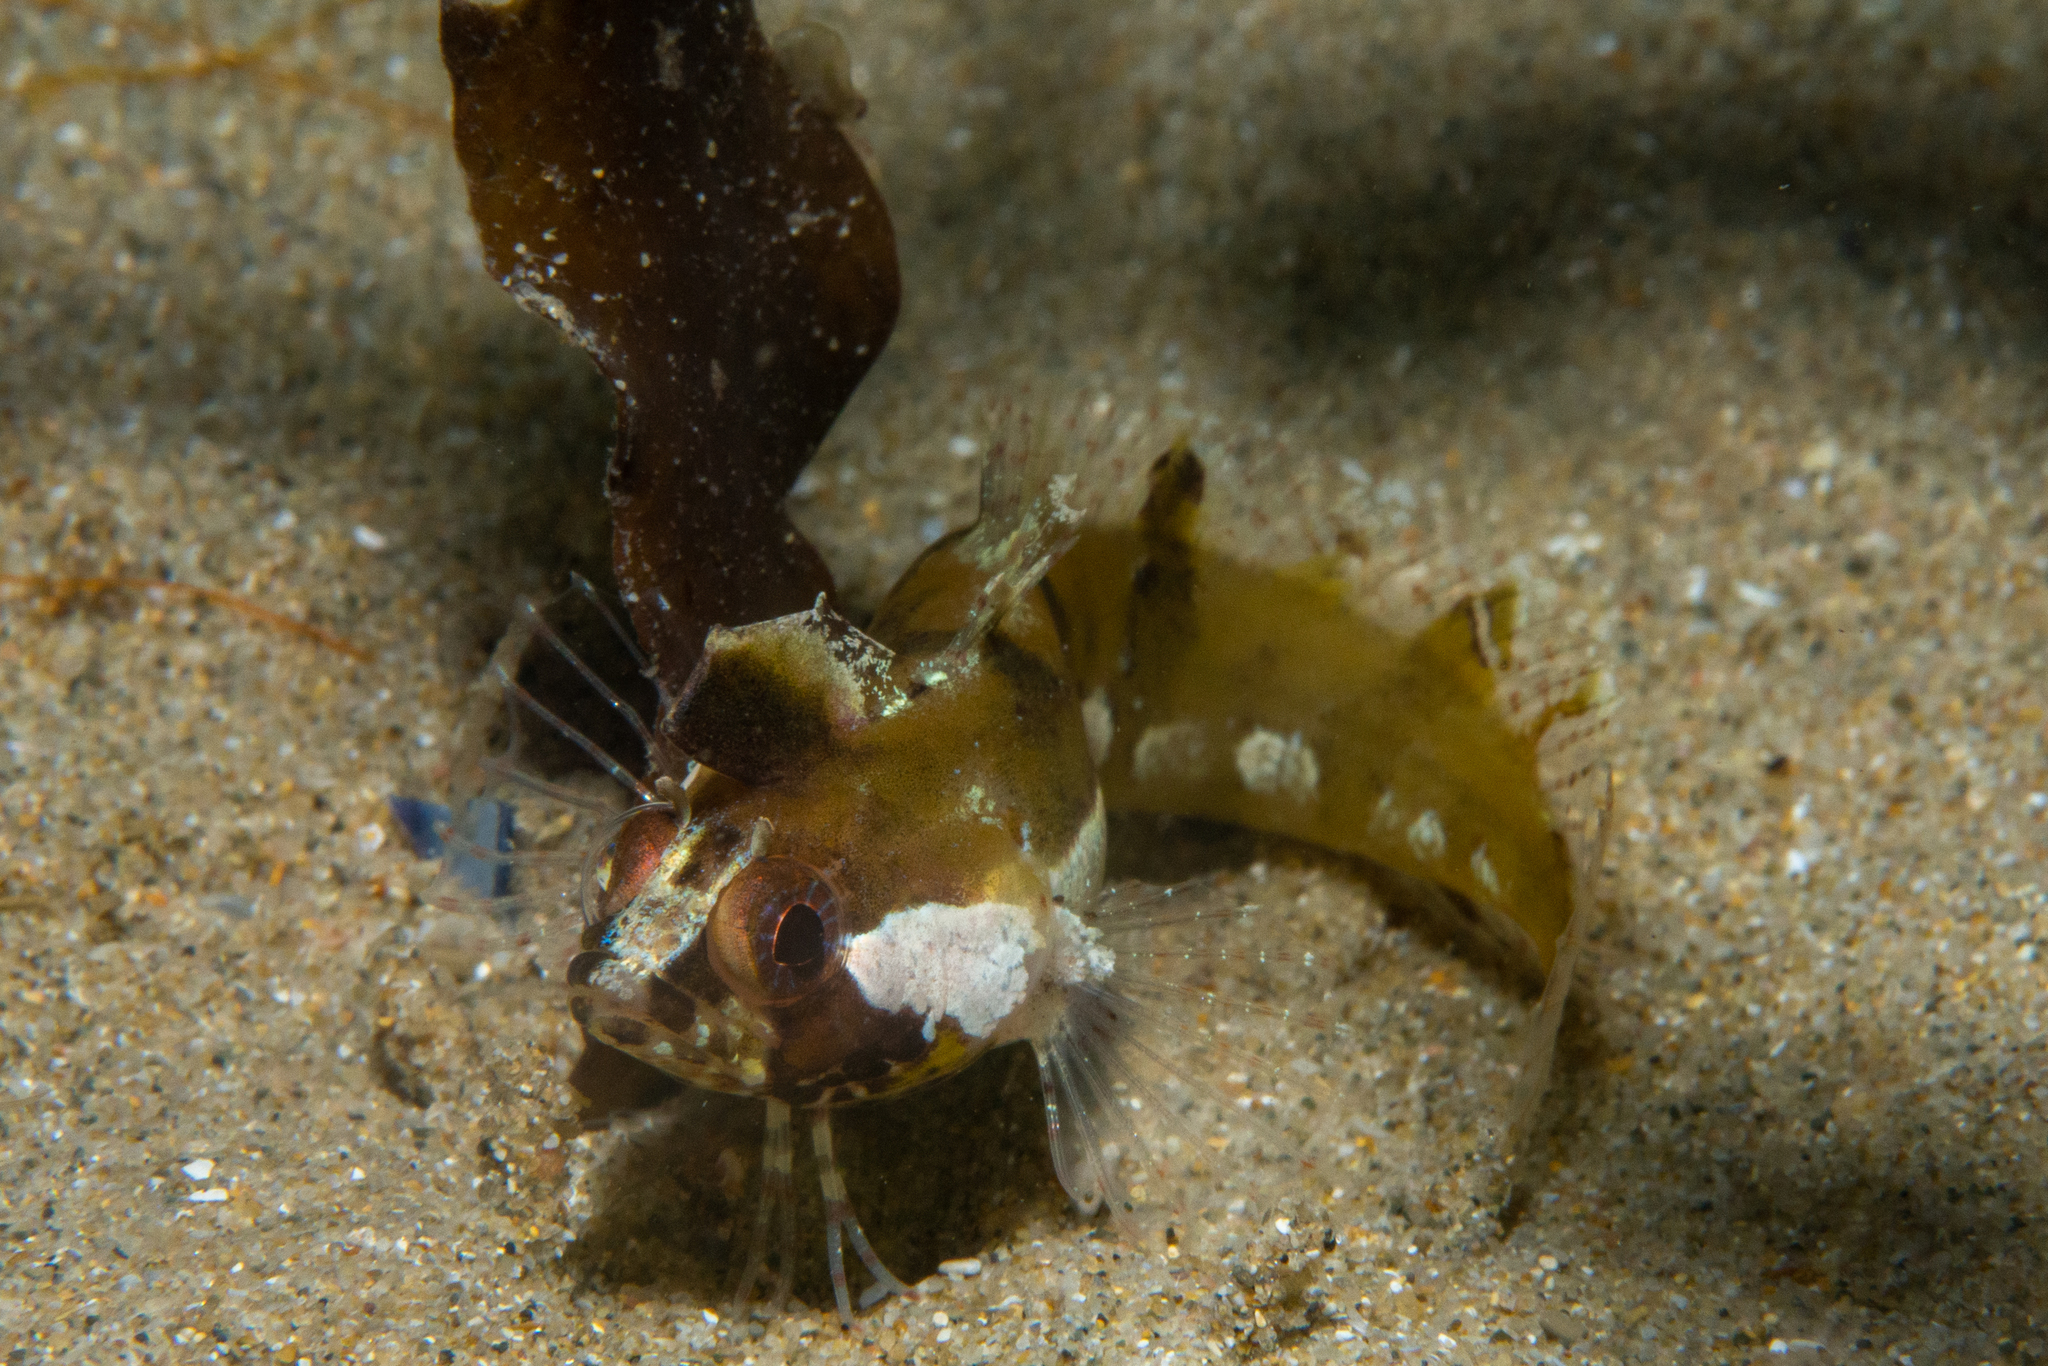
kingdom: Animalia
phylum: Chordata
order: Perciformes
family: Clinidae
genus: Heteroclinus
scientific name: Heteroclinus kuiteri
